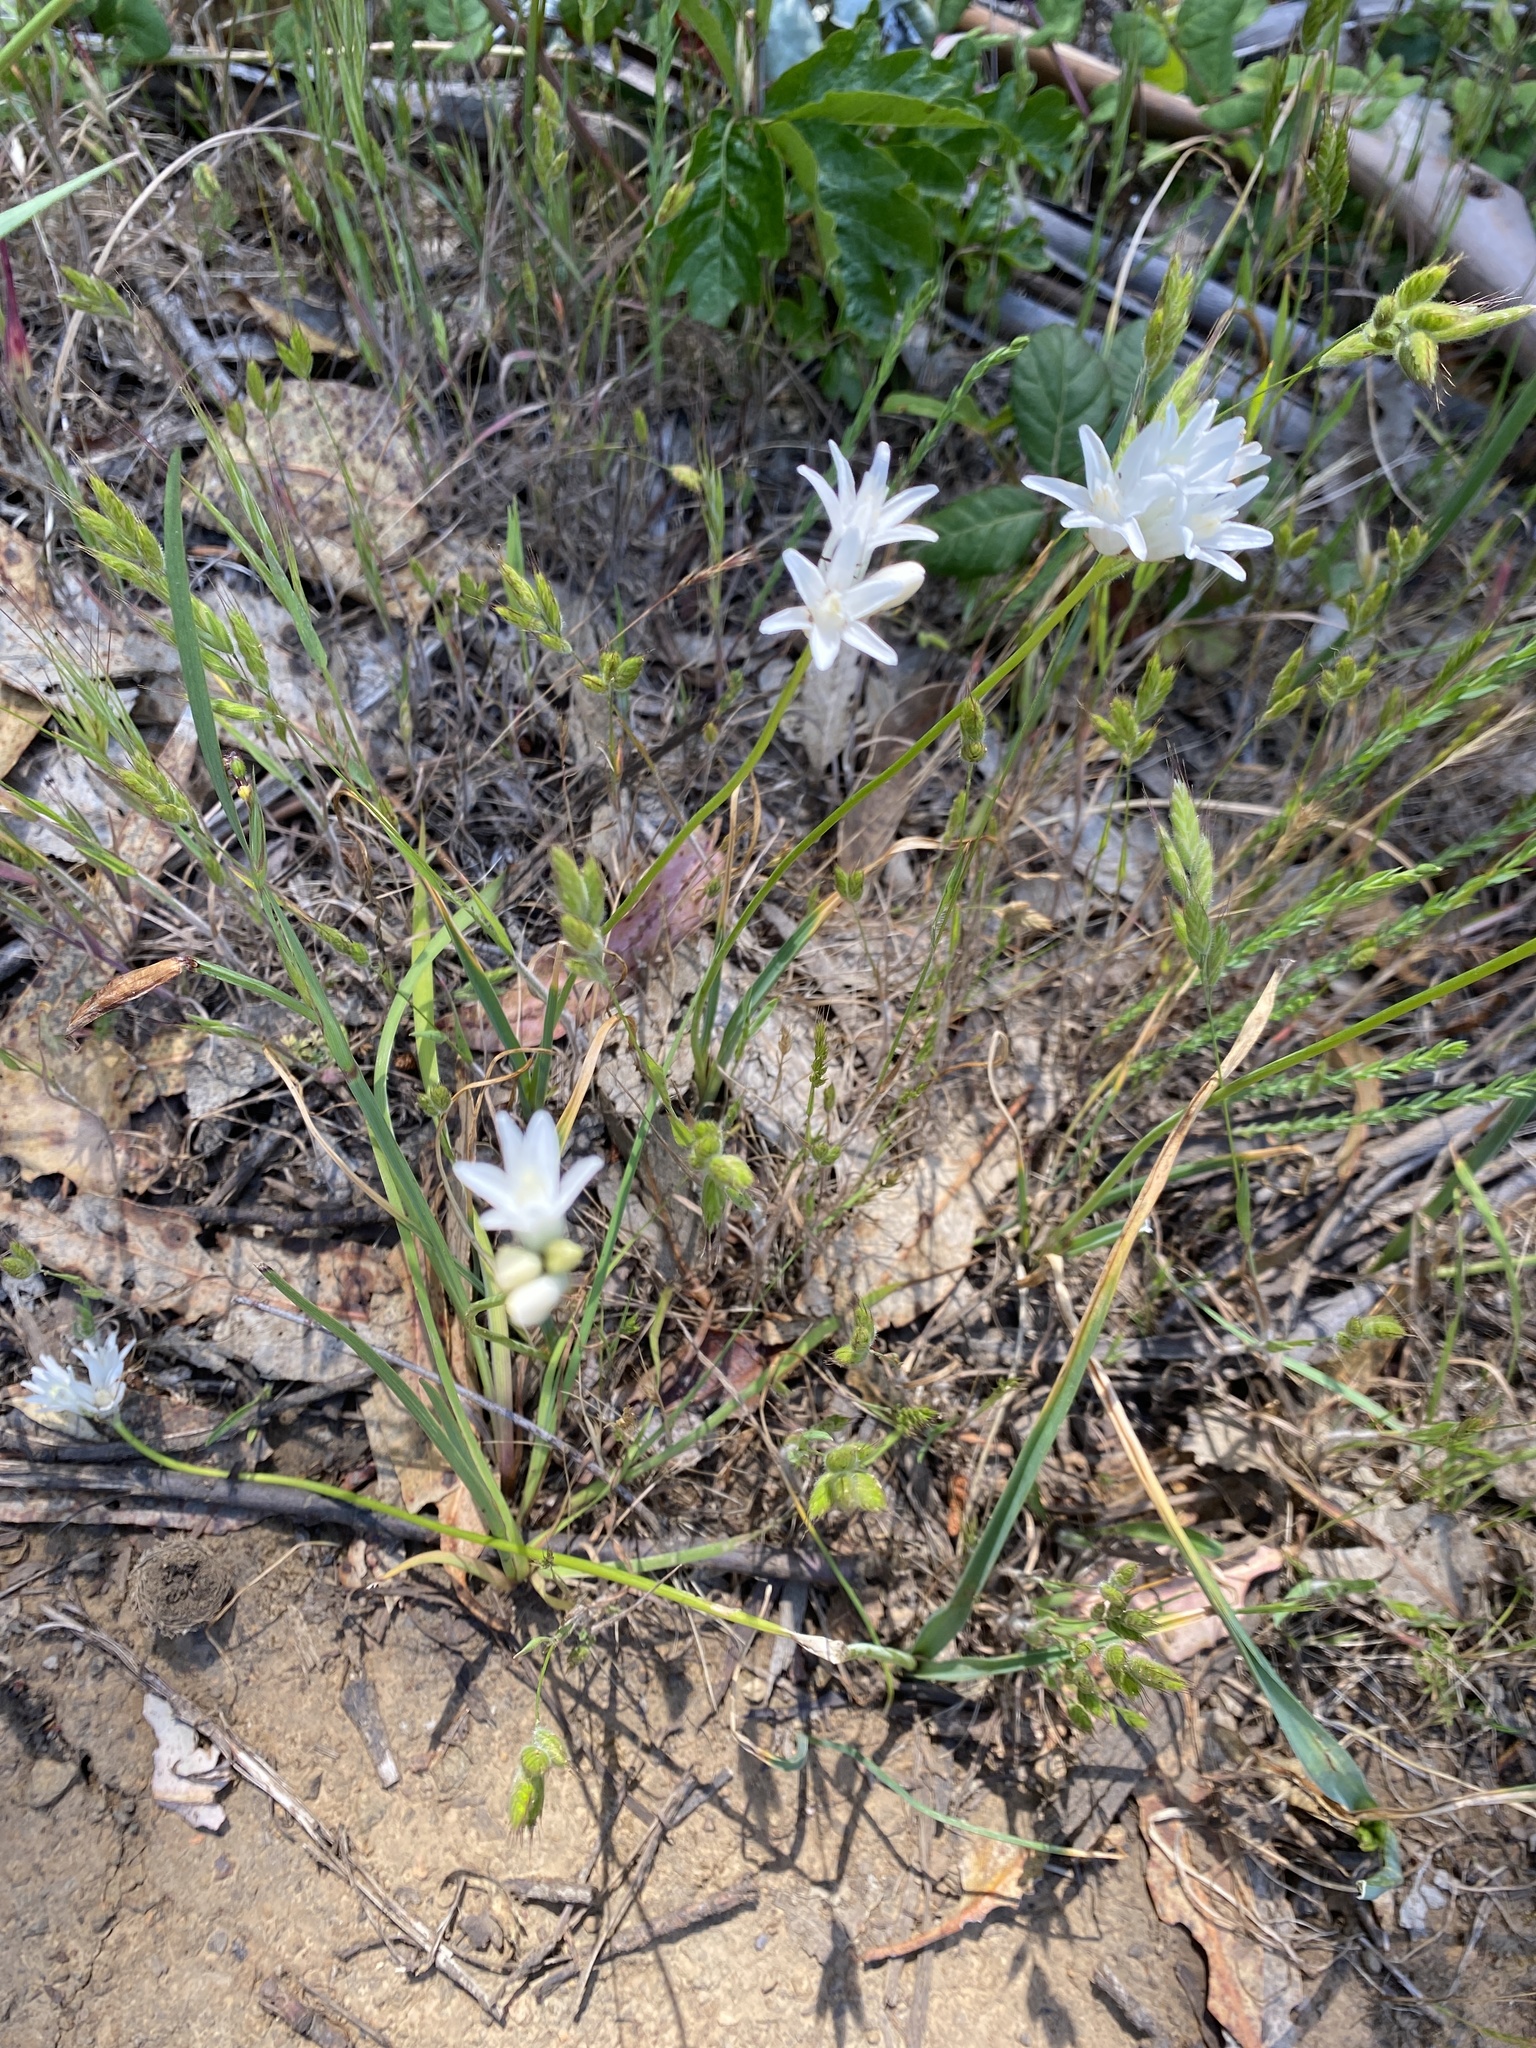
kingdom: Plantae
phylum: Tracheophyta
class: Liliopsida
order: Asparagales
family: Asparagaceae
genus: Dipterostemon
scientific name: Dipterostemon capitatus
